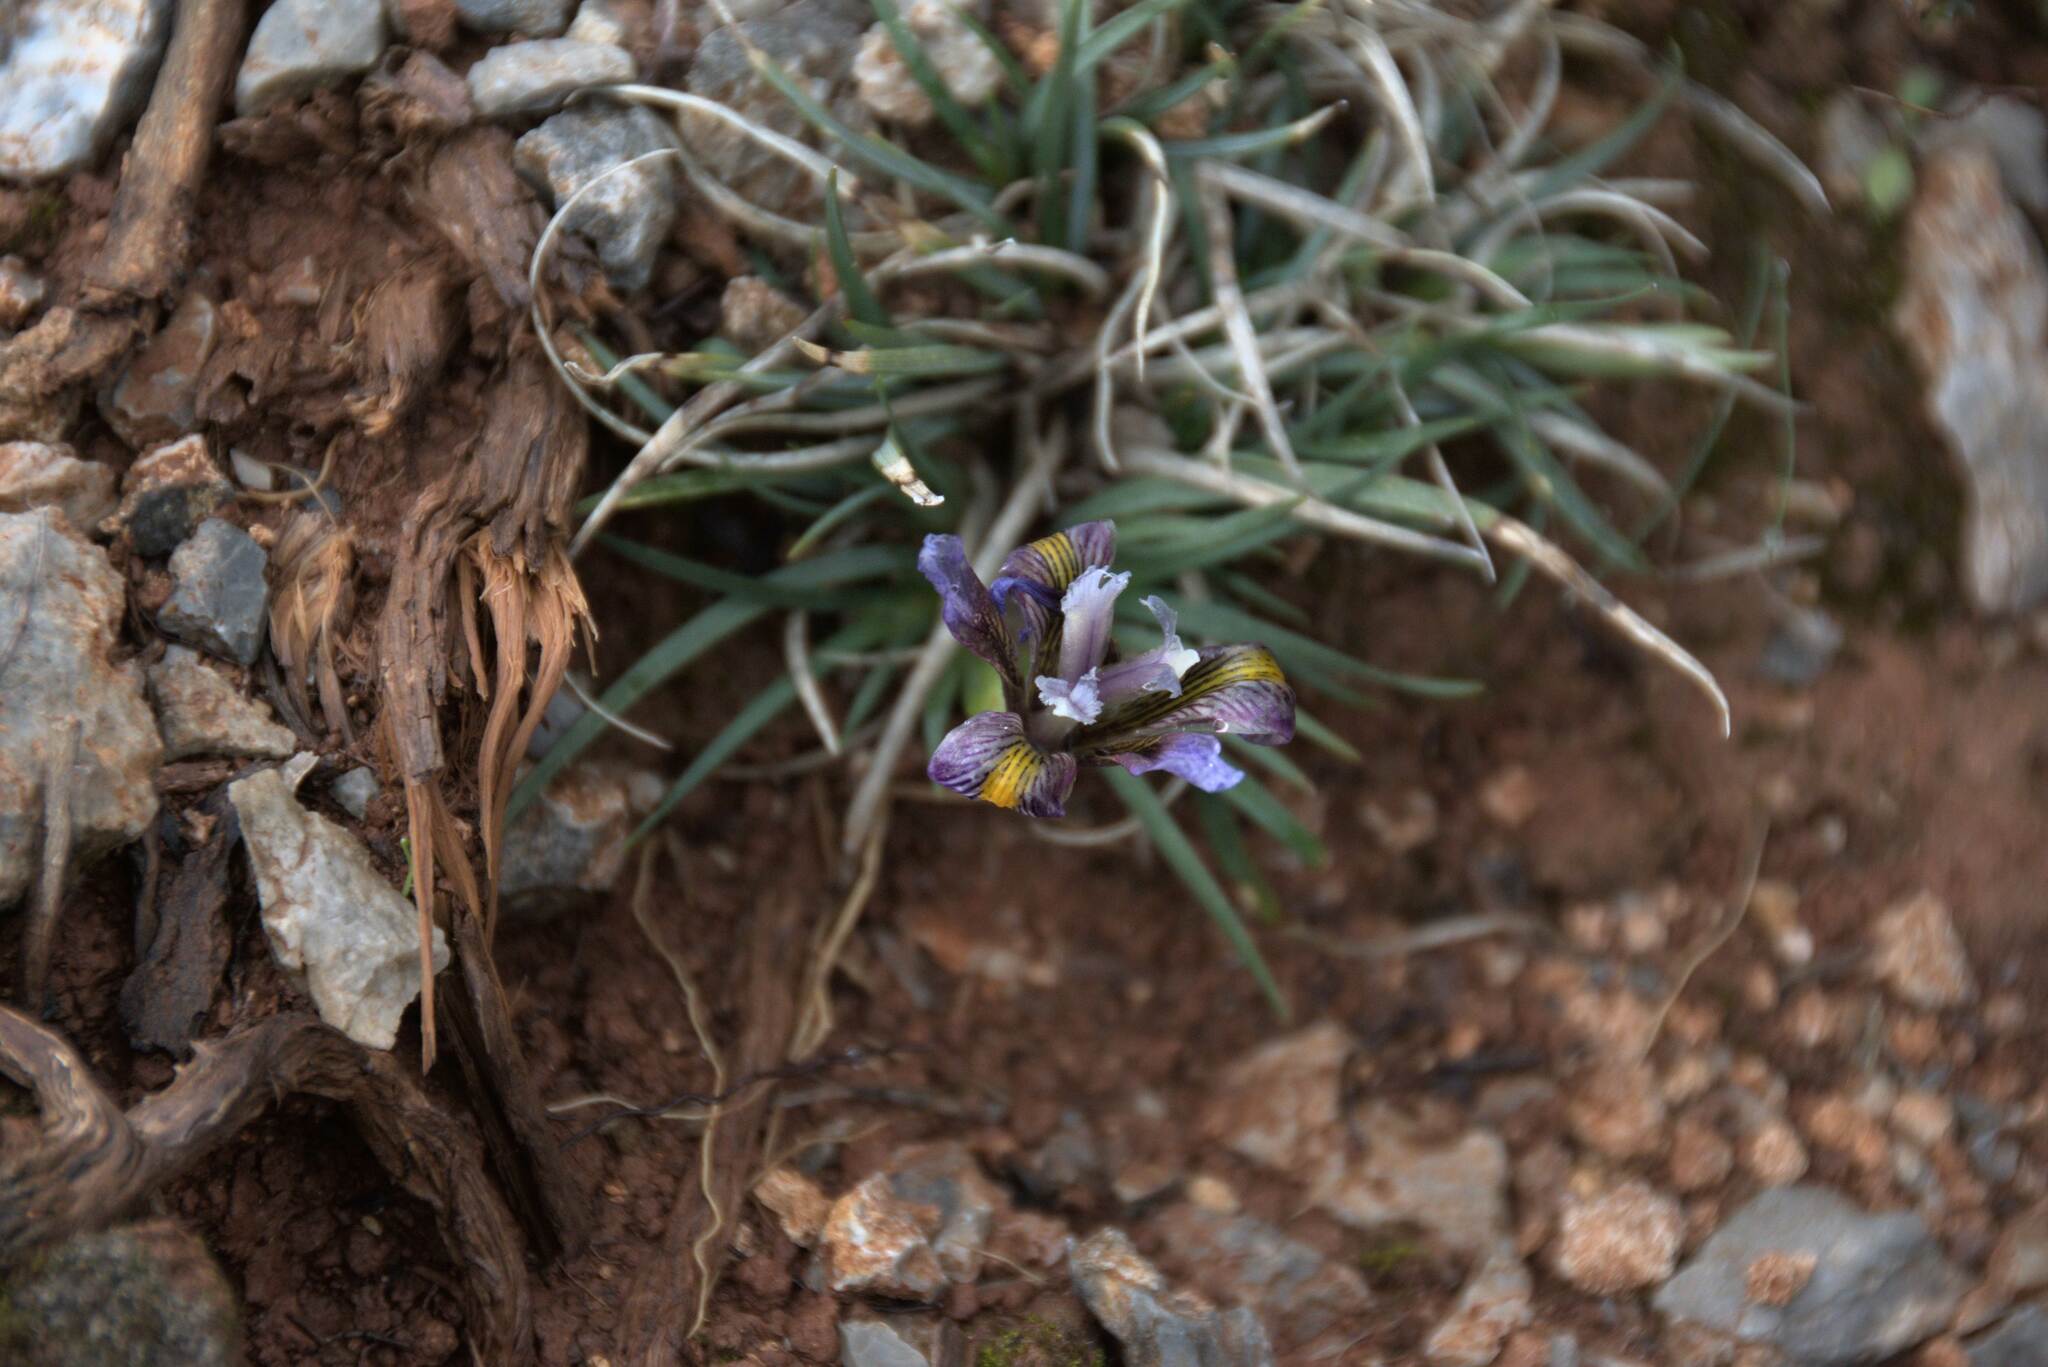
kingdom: Plantae
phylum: Tracheophyta
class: Liliopsida
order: Asparagales
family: Iridaceae
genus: Iris
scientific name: Iris unguicularis
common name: Algerian iris
